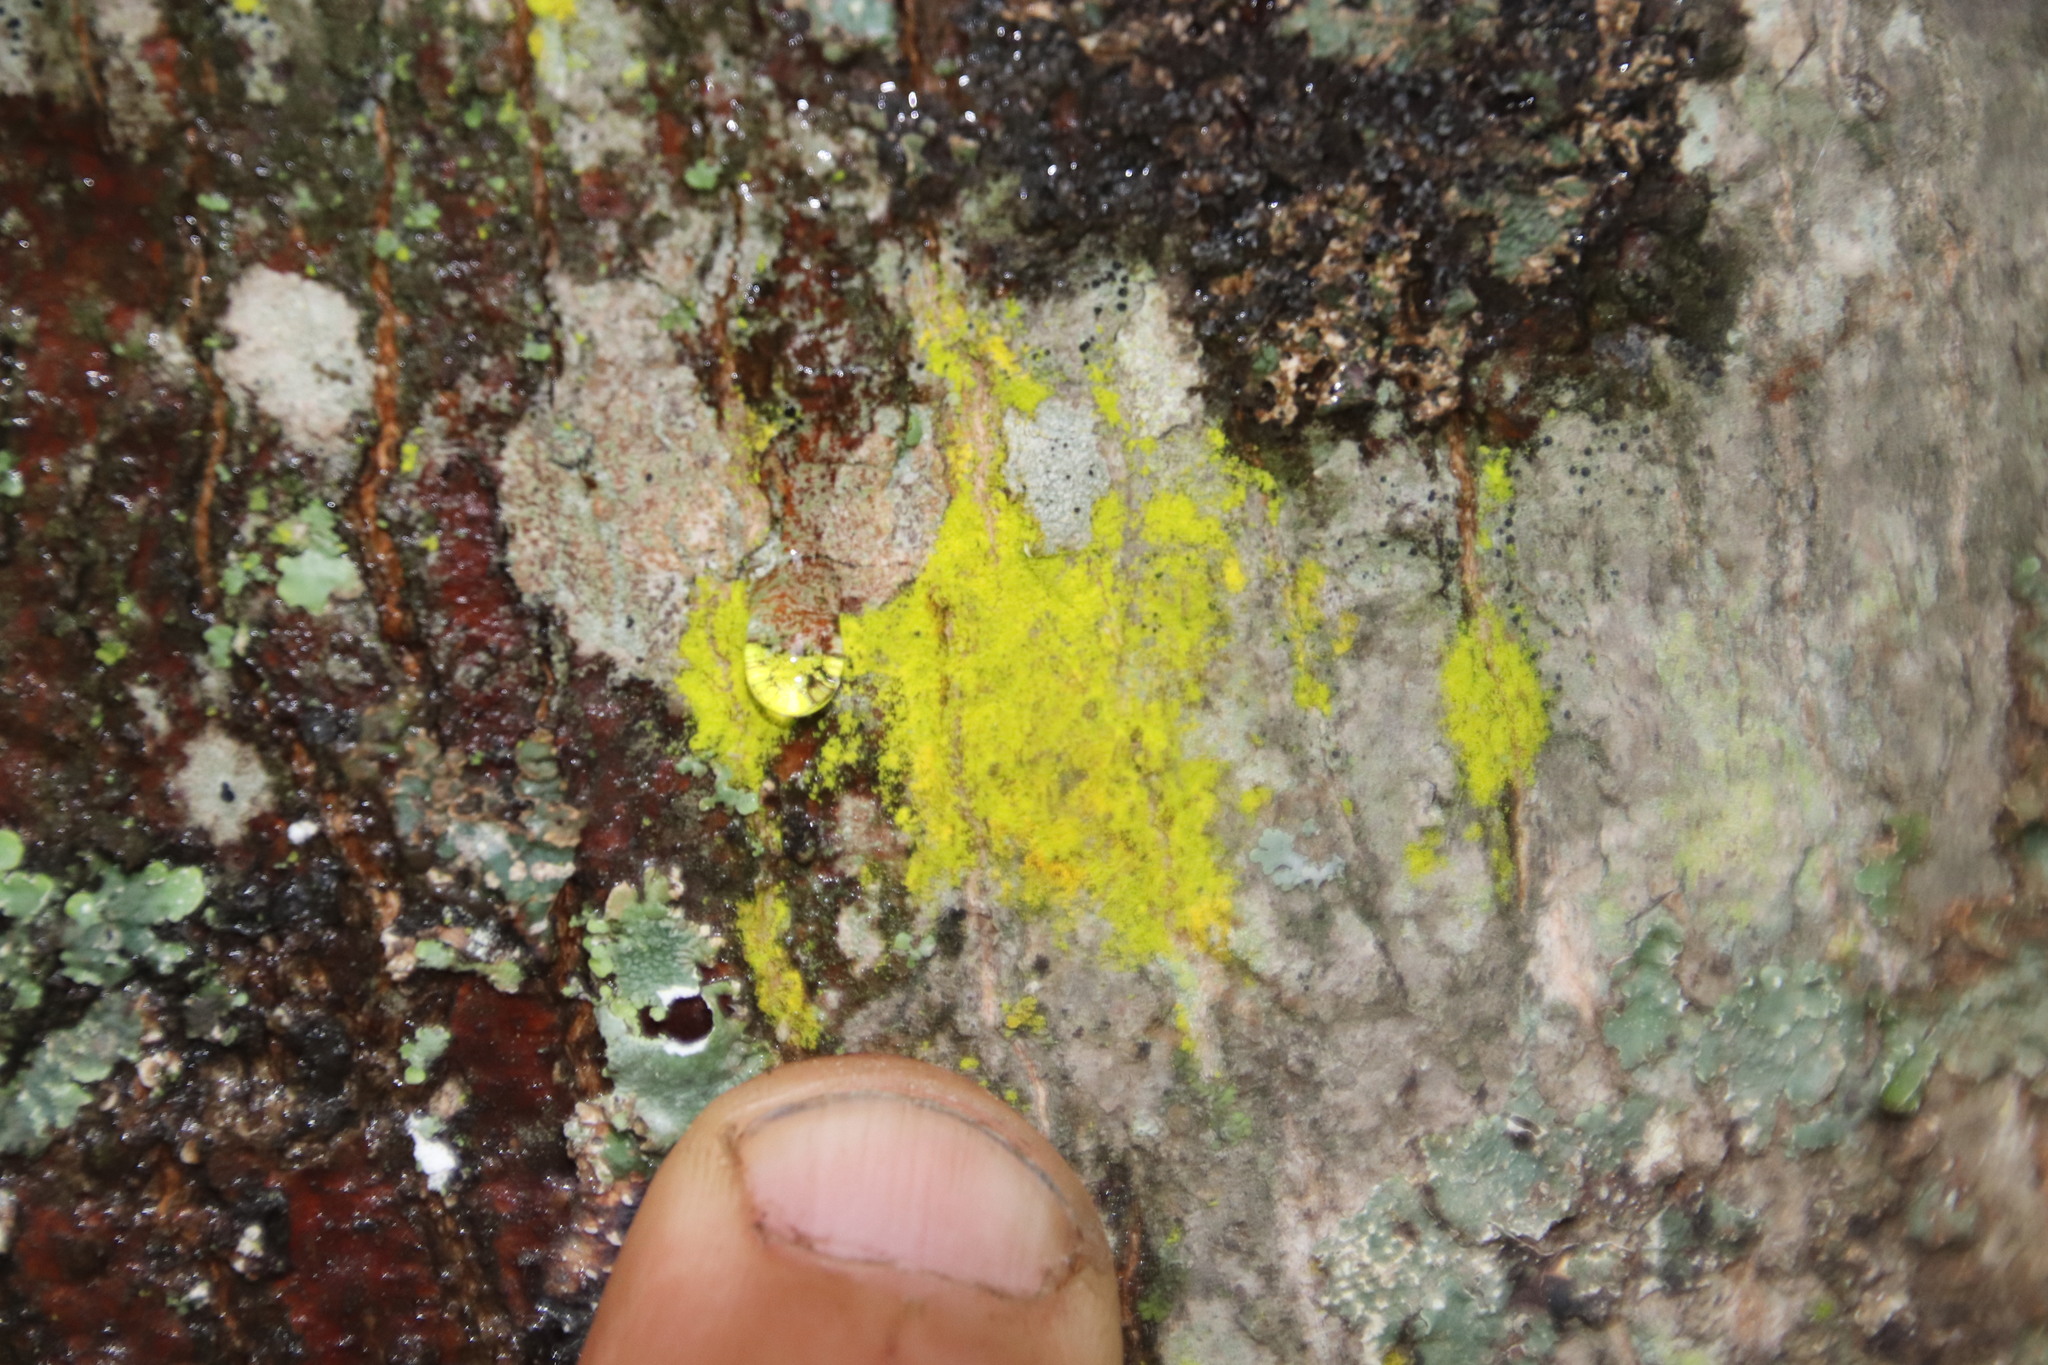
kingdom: Fungi
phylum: Ascomycota
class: Arthoniomycetes
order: Arthoniales
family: Chrysotrichaceae
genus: Chrysothrix
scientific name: Chrysothrix candelaris
